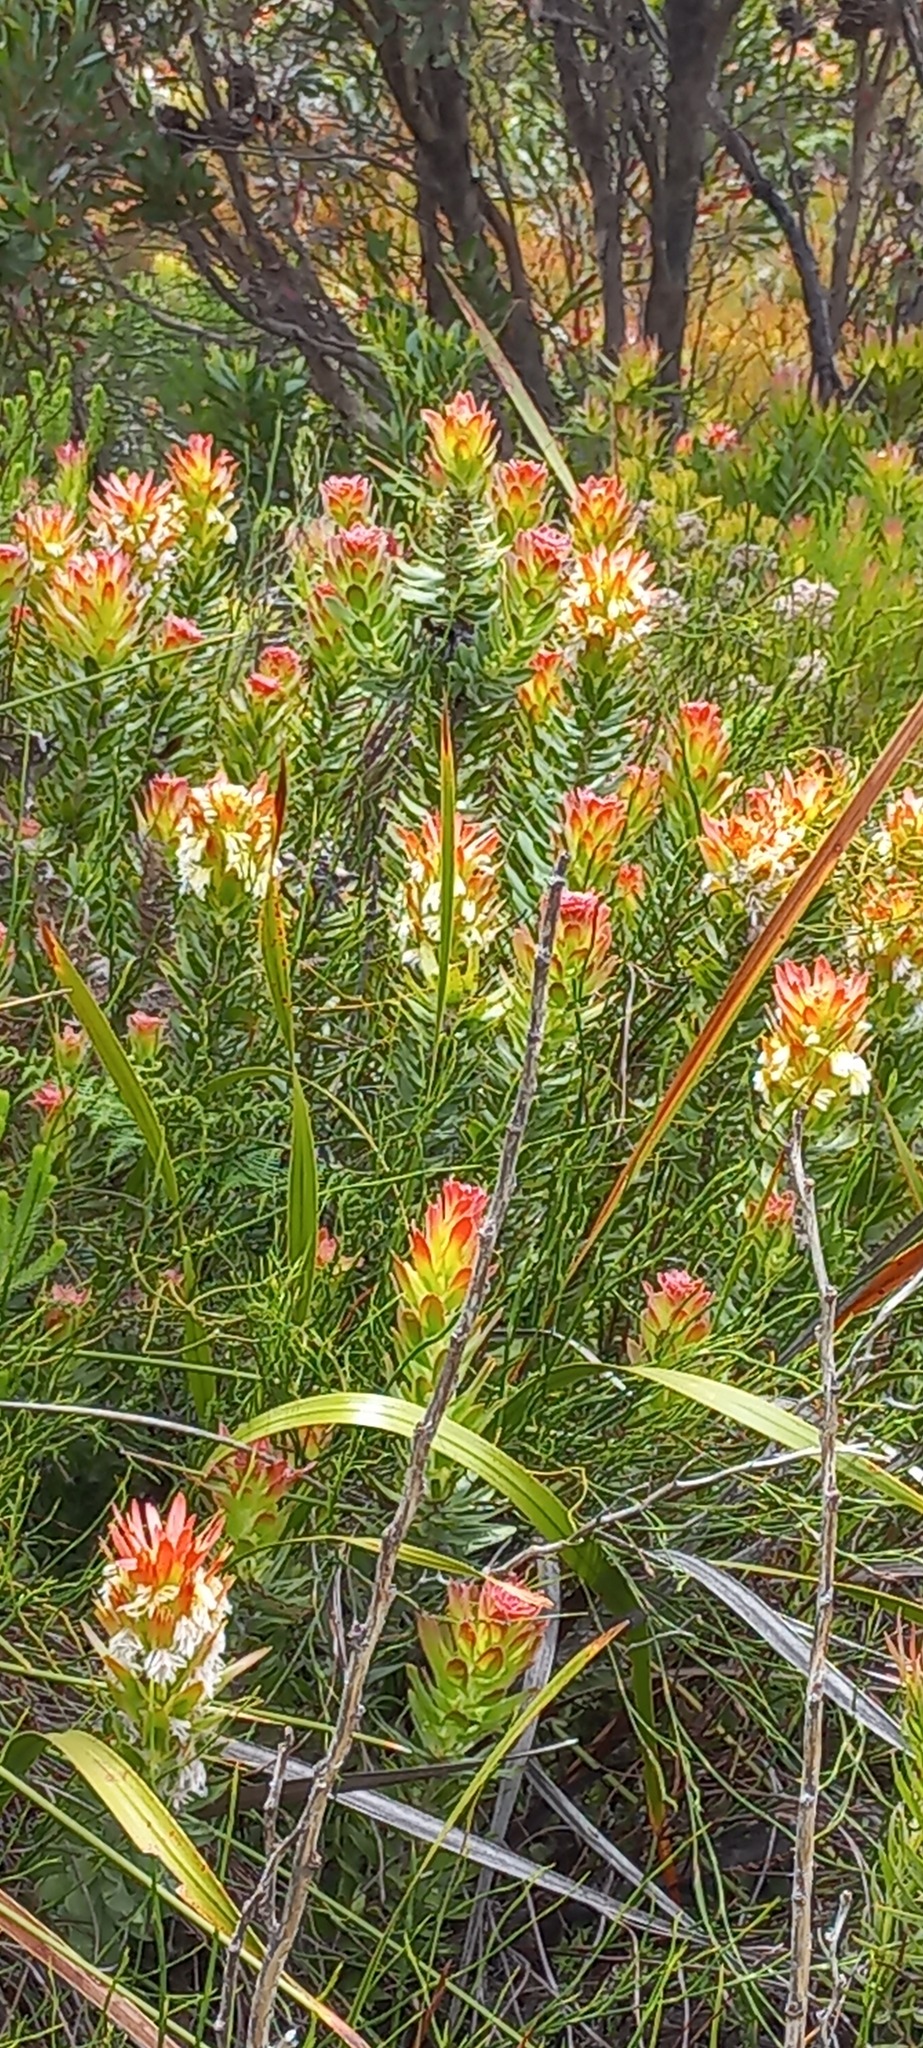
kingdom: Plantae
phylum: Tracheophyta
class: Magnoliopsida
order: Proteales
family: Proteaceae
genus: Mimetes
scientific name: Mimetes cucullatus
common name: Common pagoda
